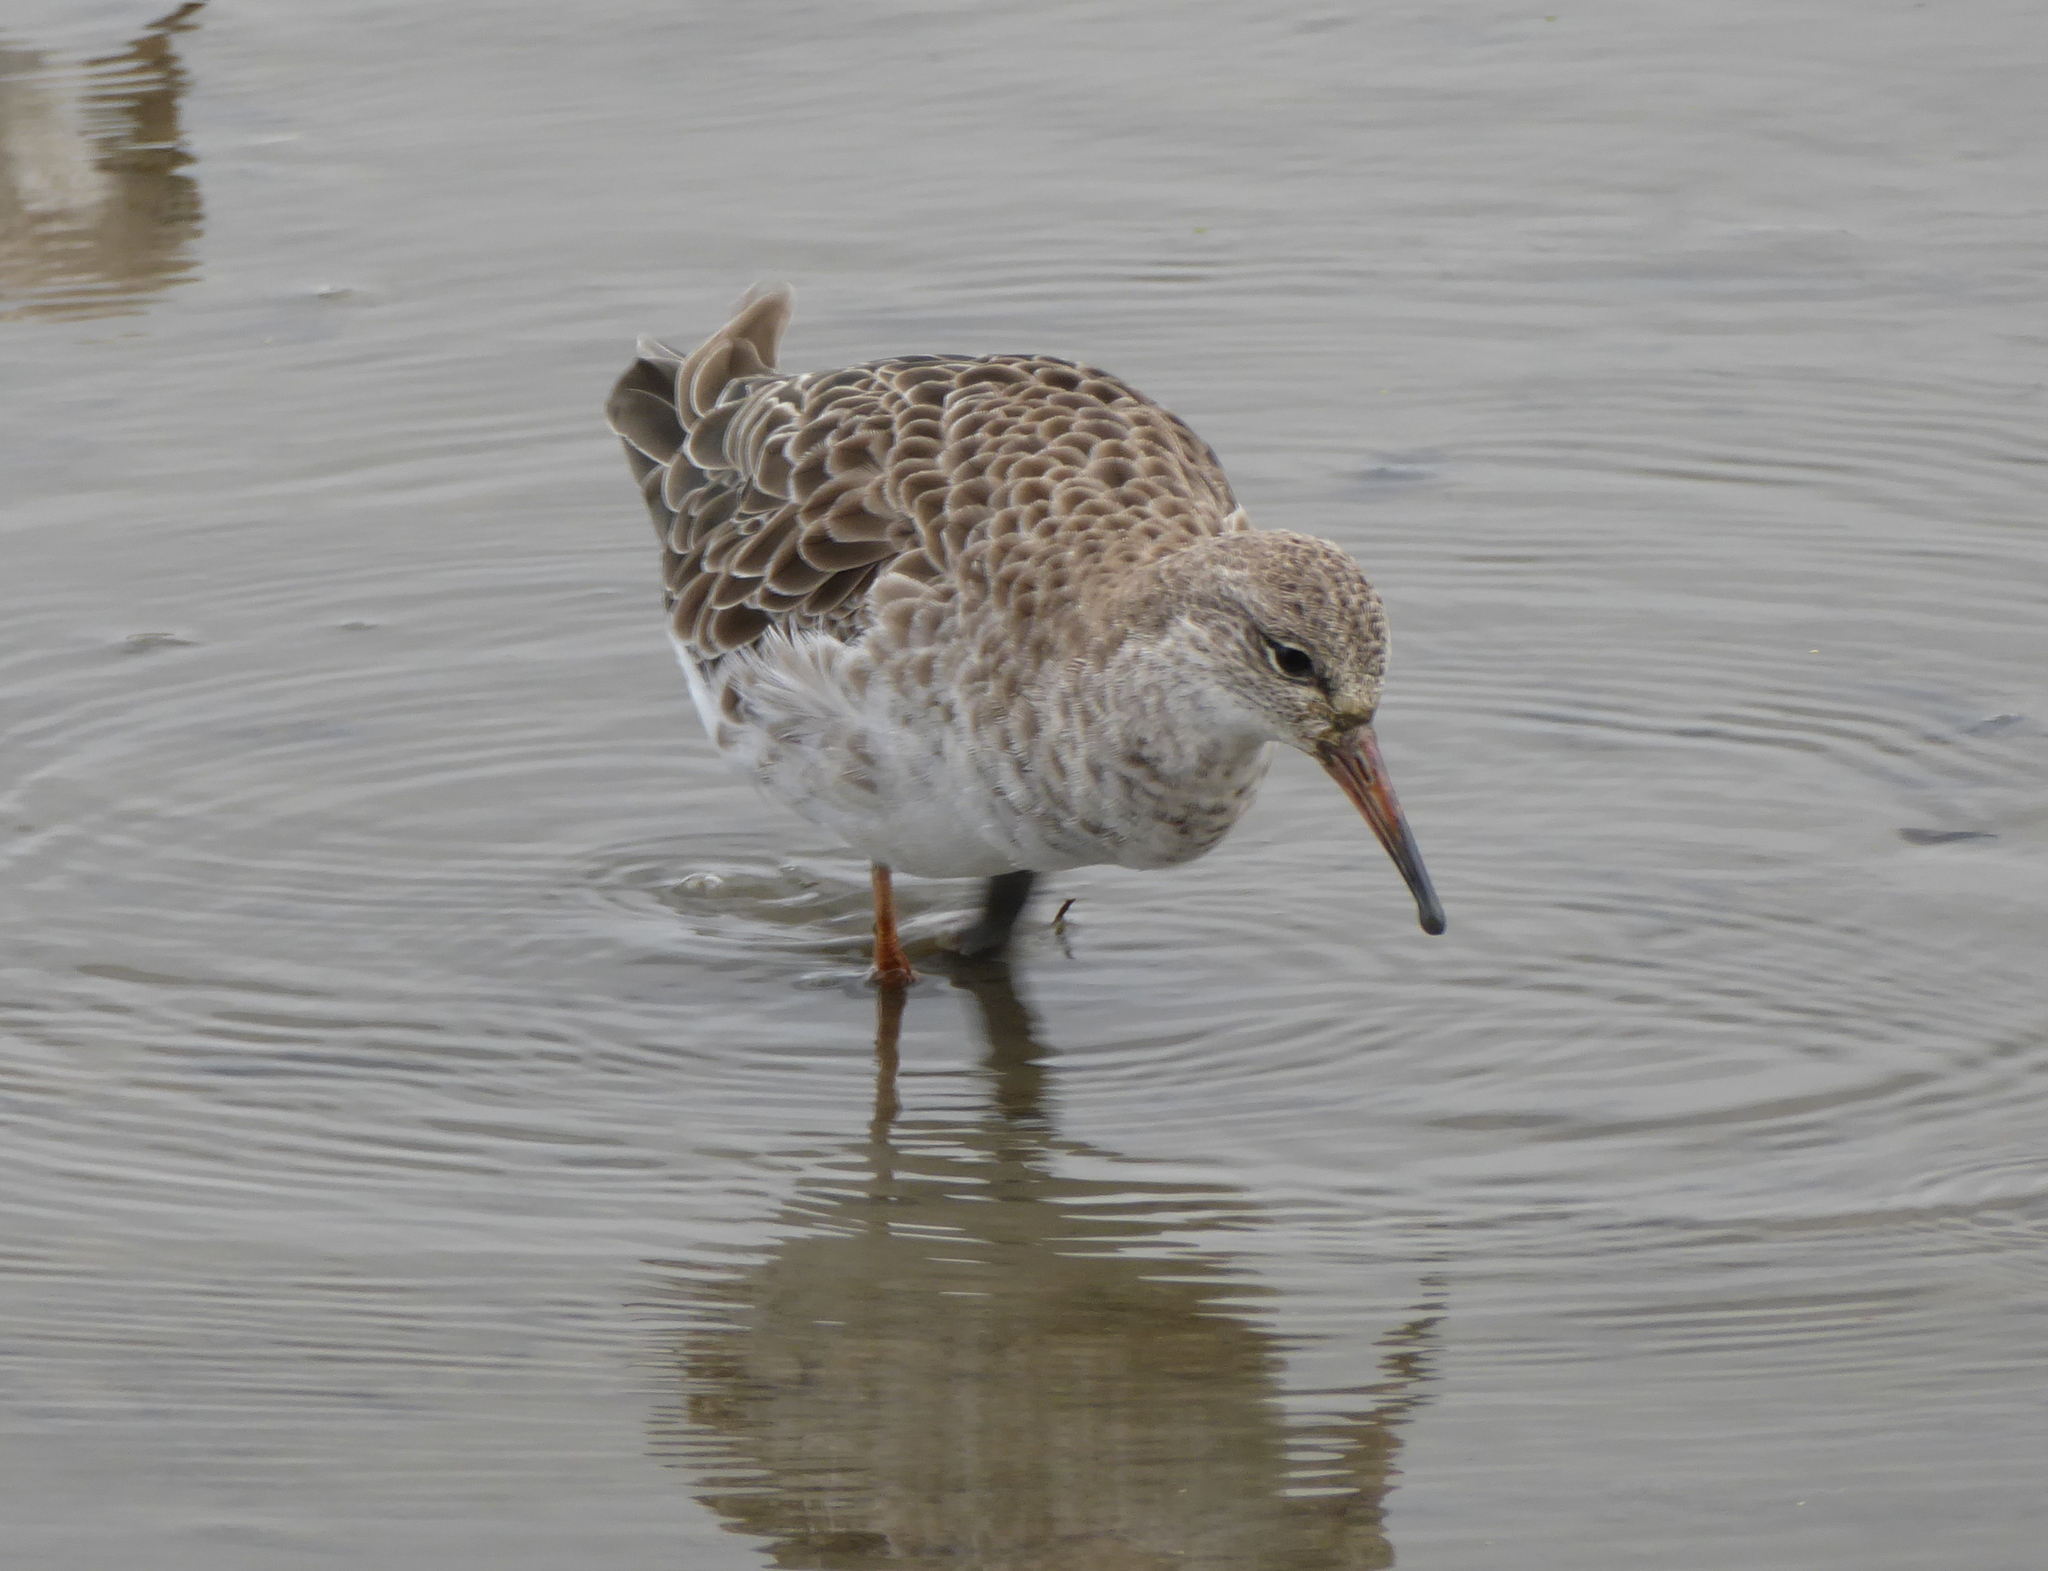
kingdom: Animalia
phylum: Chordata
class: Aves
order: Charadriiformes
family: Scolopacidae
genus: Calidris
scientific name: Calidris pugnax
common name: Ruff
